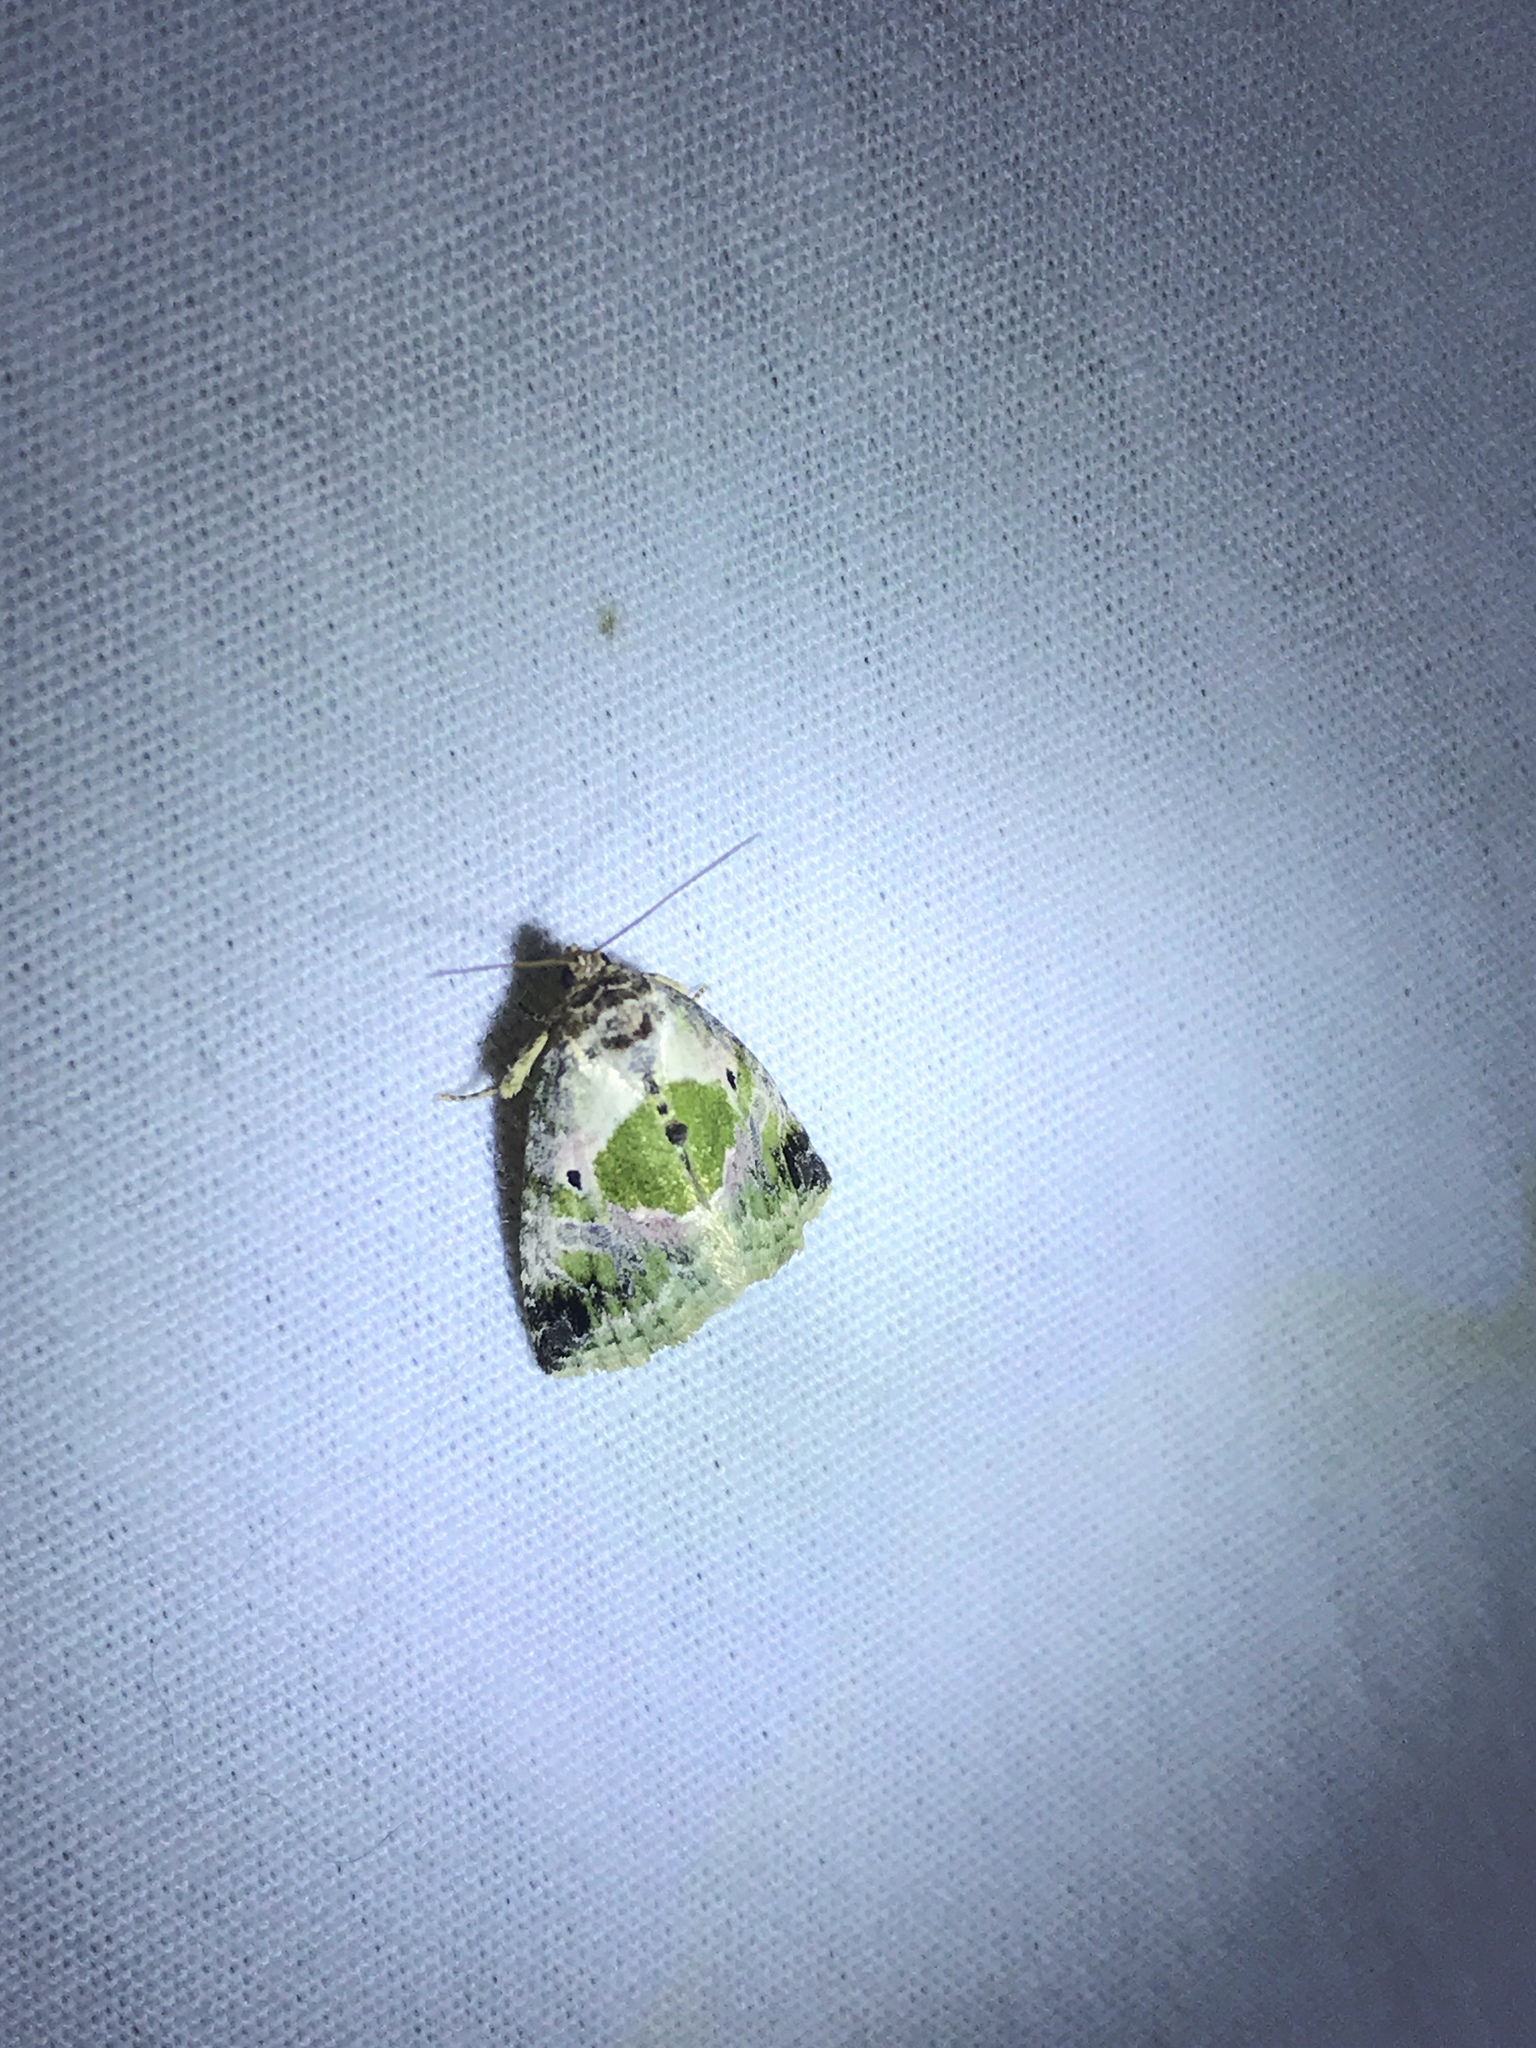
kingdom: Animalia
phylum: Arthropoda
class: Insecta
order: Lepidoptera
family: Noctuidae
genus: Maliattha
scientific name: Maliattha synochitis
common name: Black-dotted glyph
